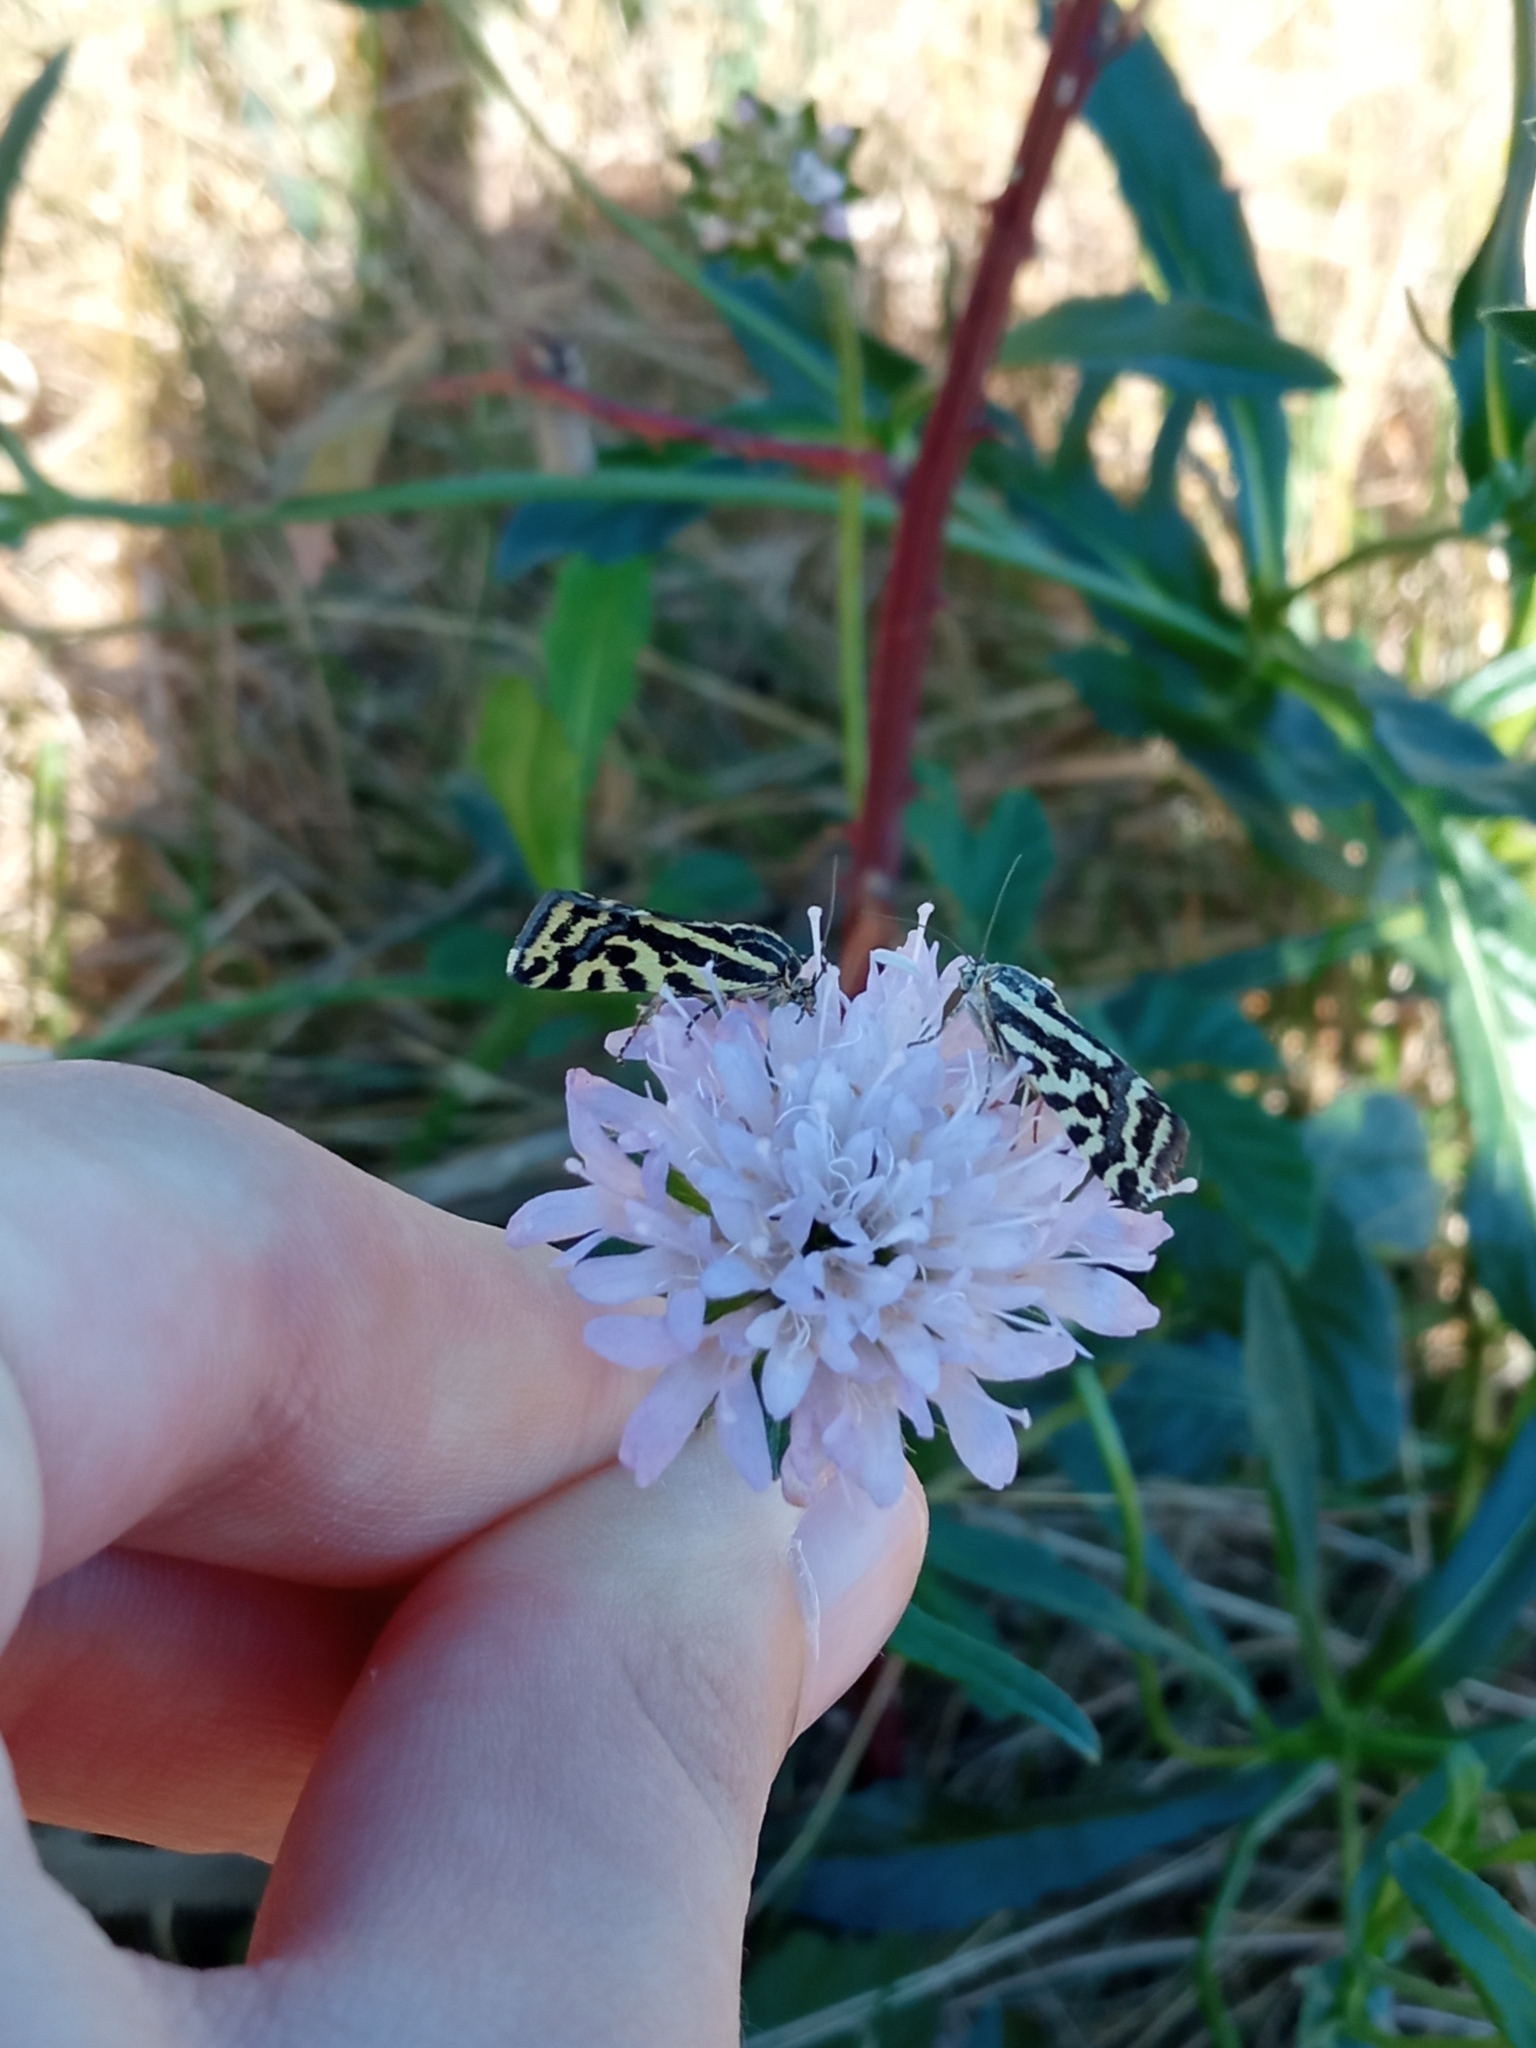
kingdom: Animalia
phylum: Arthropoda
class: Insecta
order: Lepidoptera
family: Noctuidae
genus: Acontia
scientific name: Acontia trabealis
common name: Spotted sulphur
